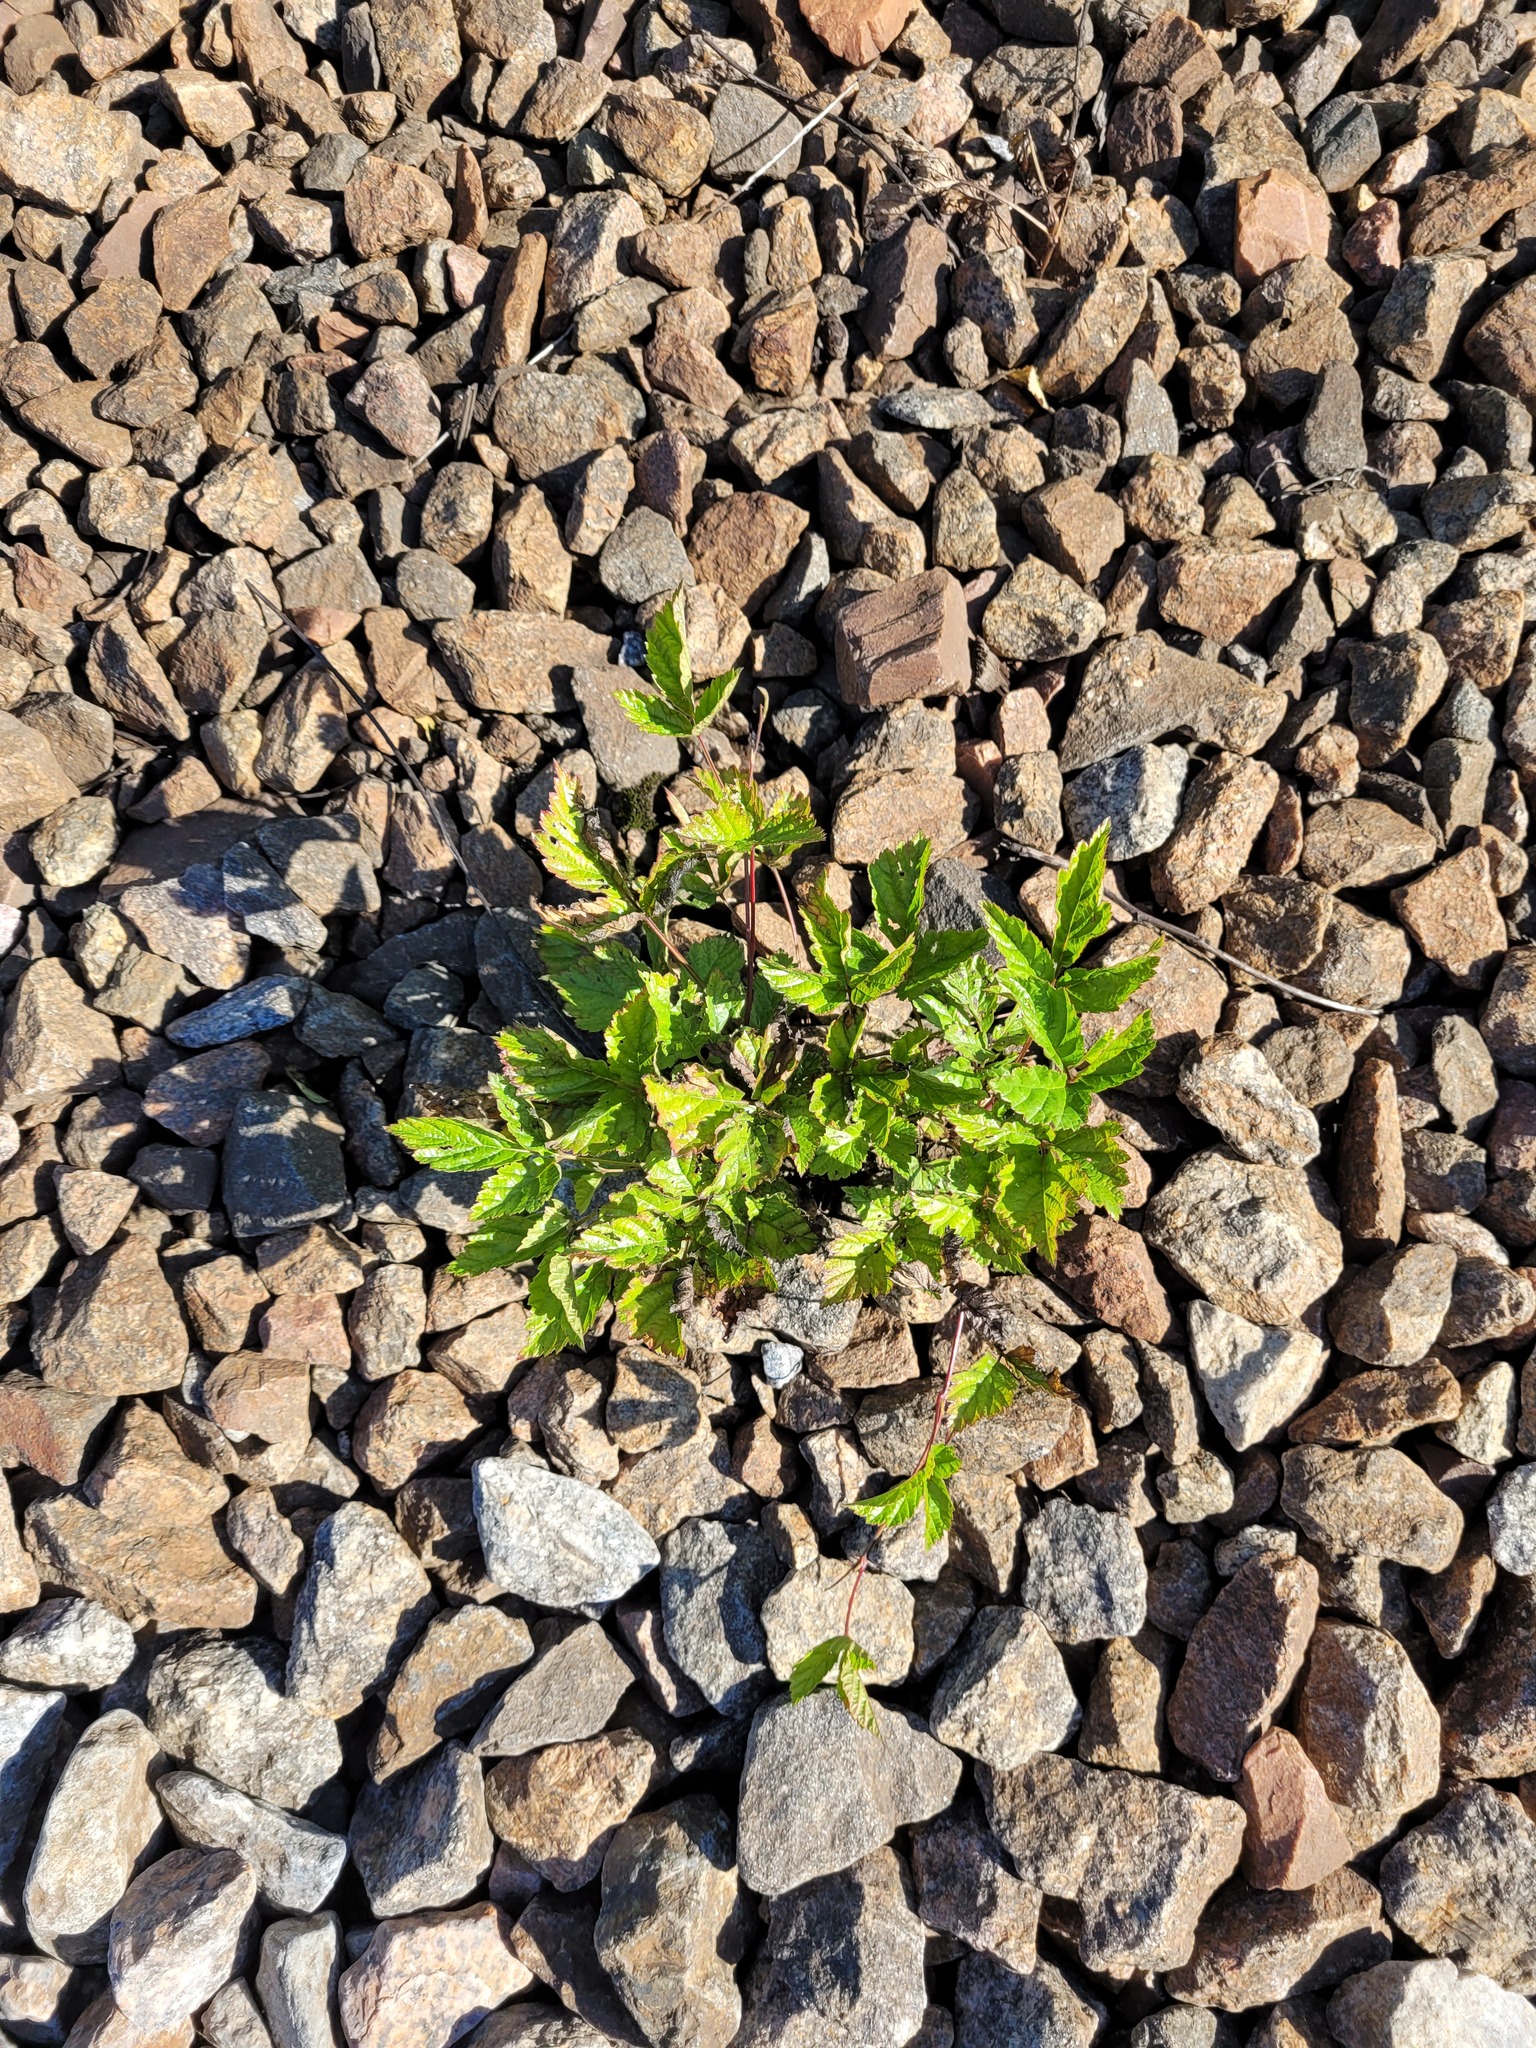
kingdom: Plantae
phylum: Tracheophyta
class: Magnoliopsida
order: Rosales
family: Rosaceae
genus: Rubus
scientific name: Rubus saxatilis
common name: Stone bramble
